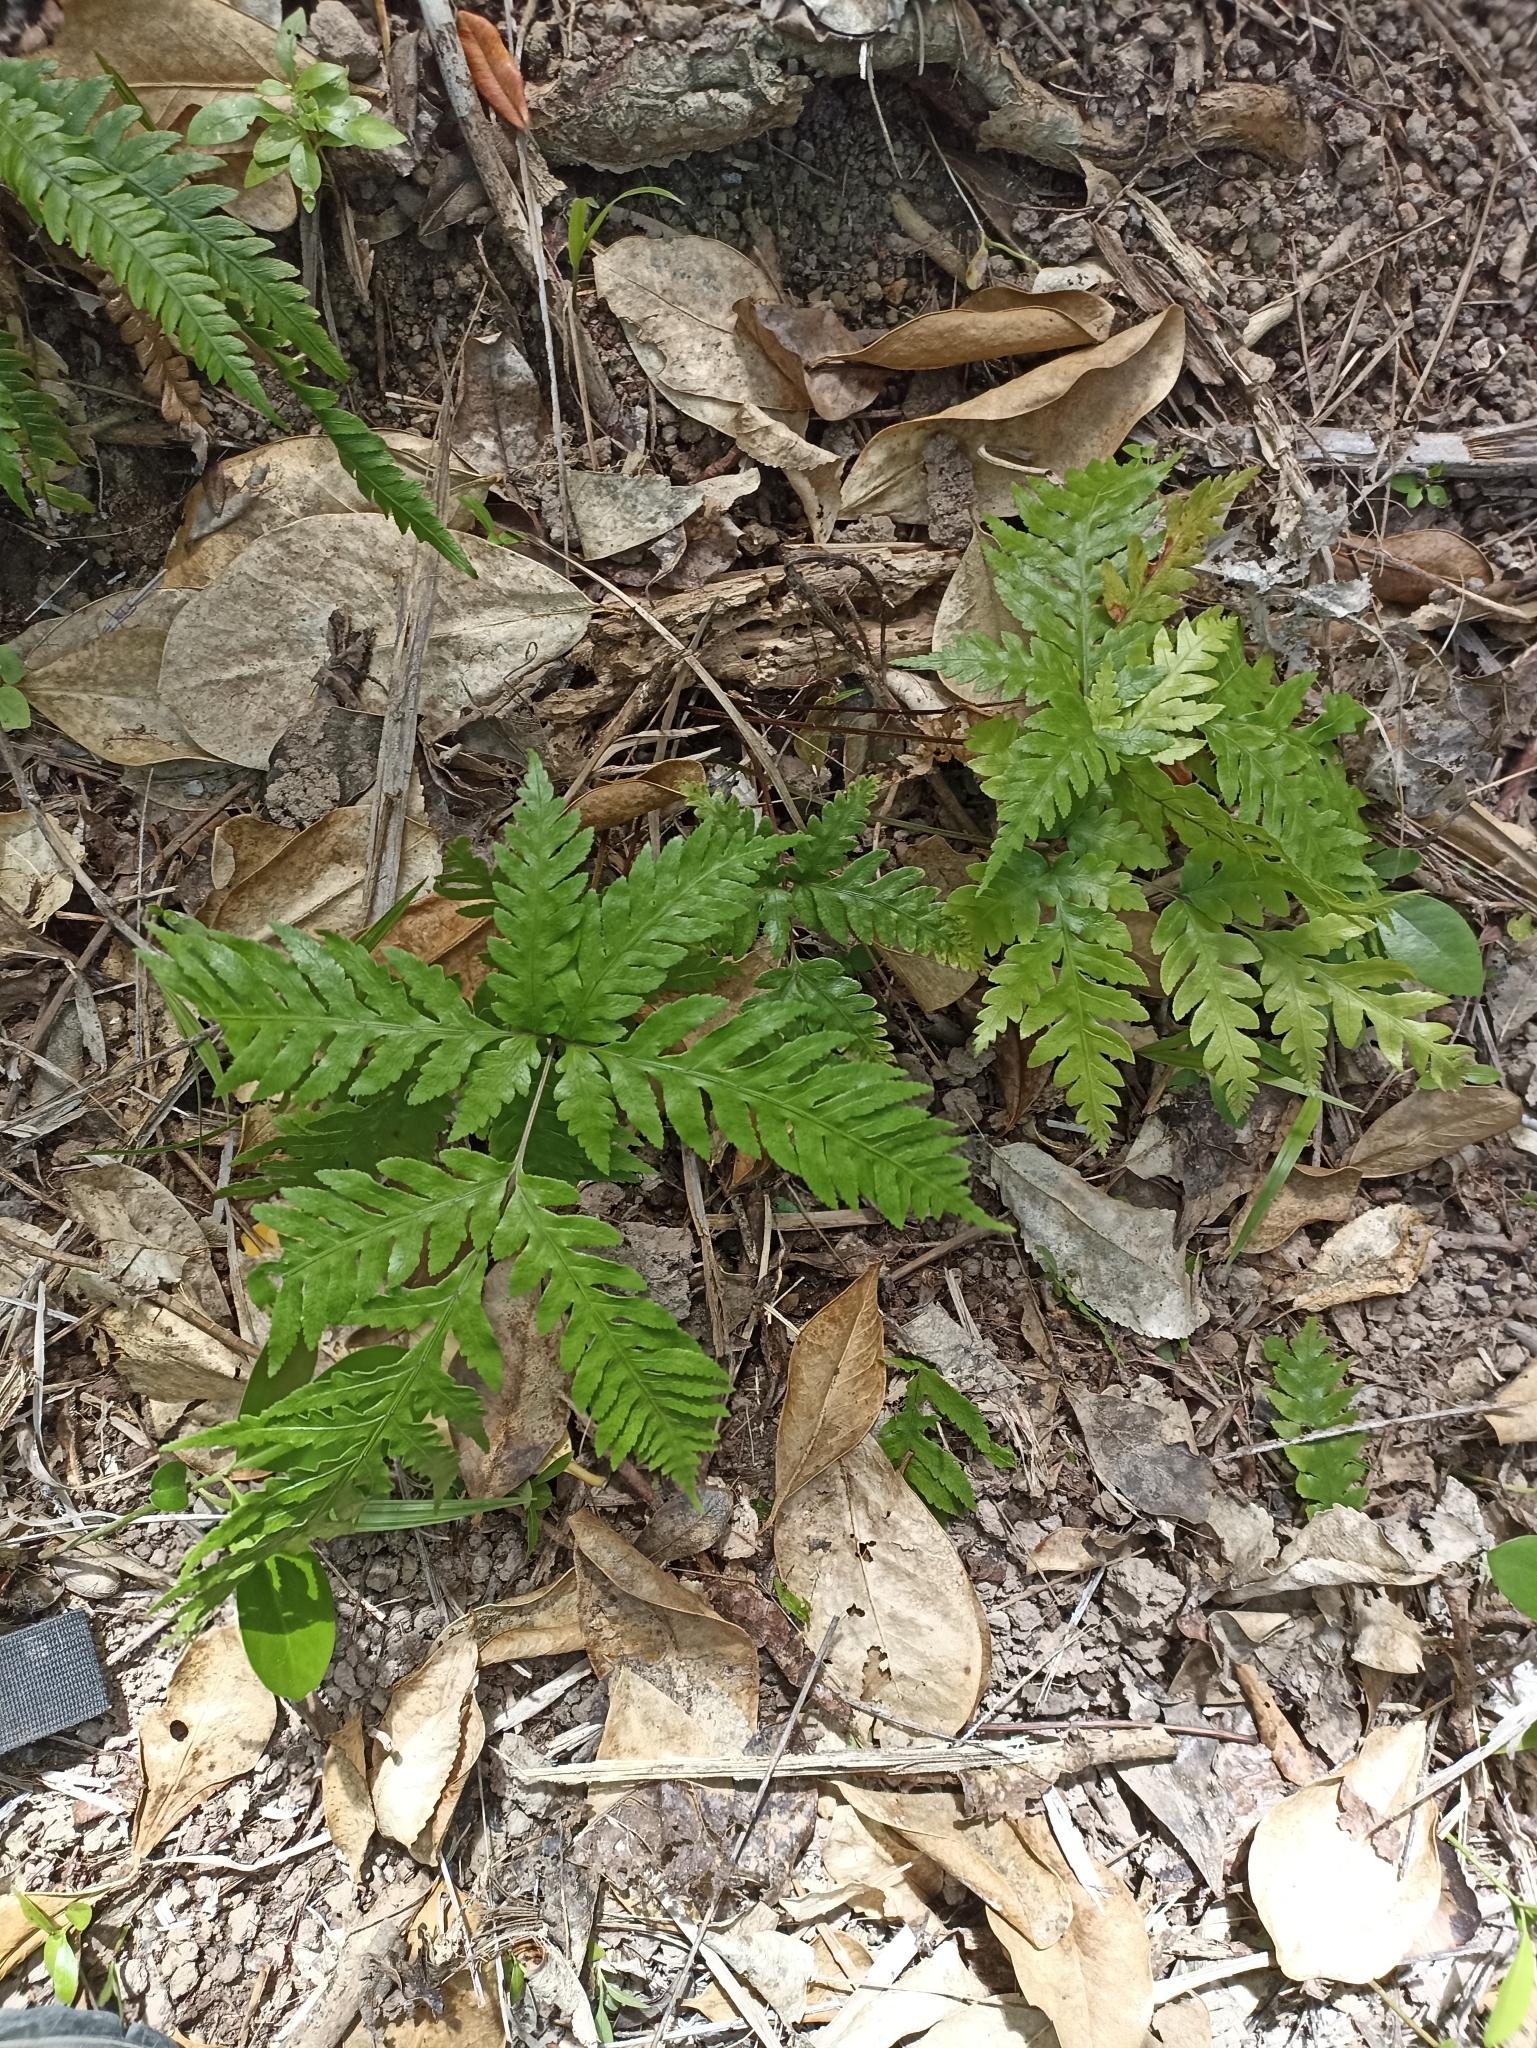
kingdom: Plantae
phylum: Tracheophyta
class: Polypodiopsida
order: Polypodiales
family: Pteridaceae
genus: Pteris
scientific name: Pteris carsei
